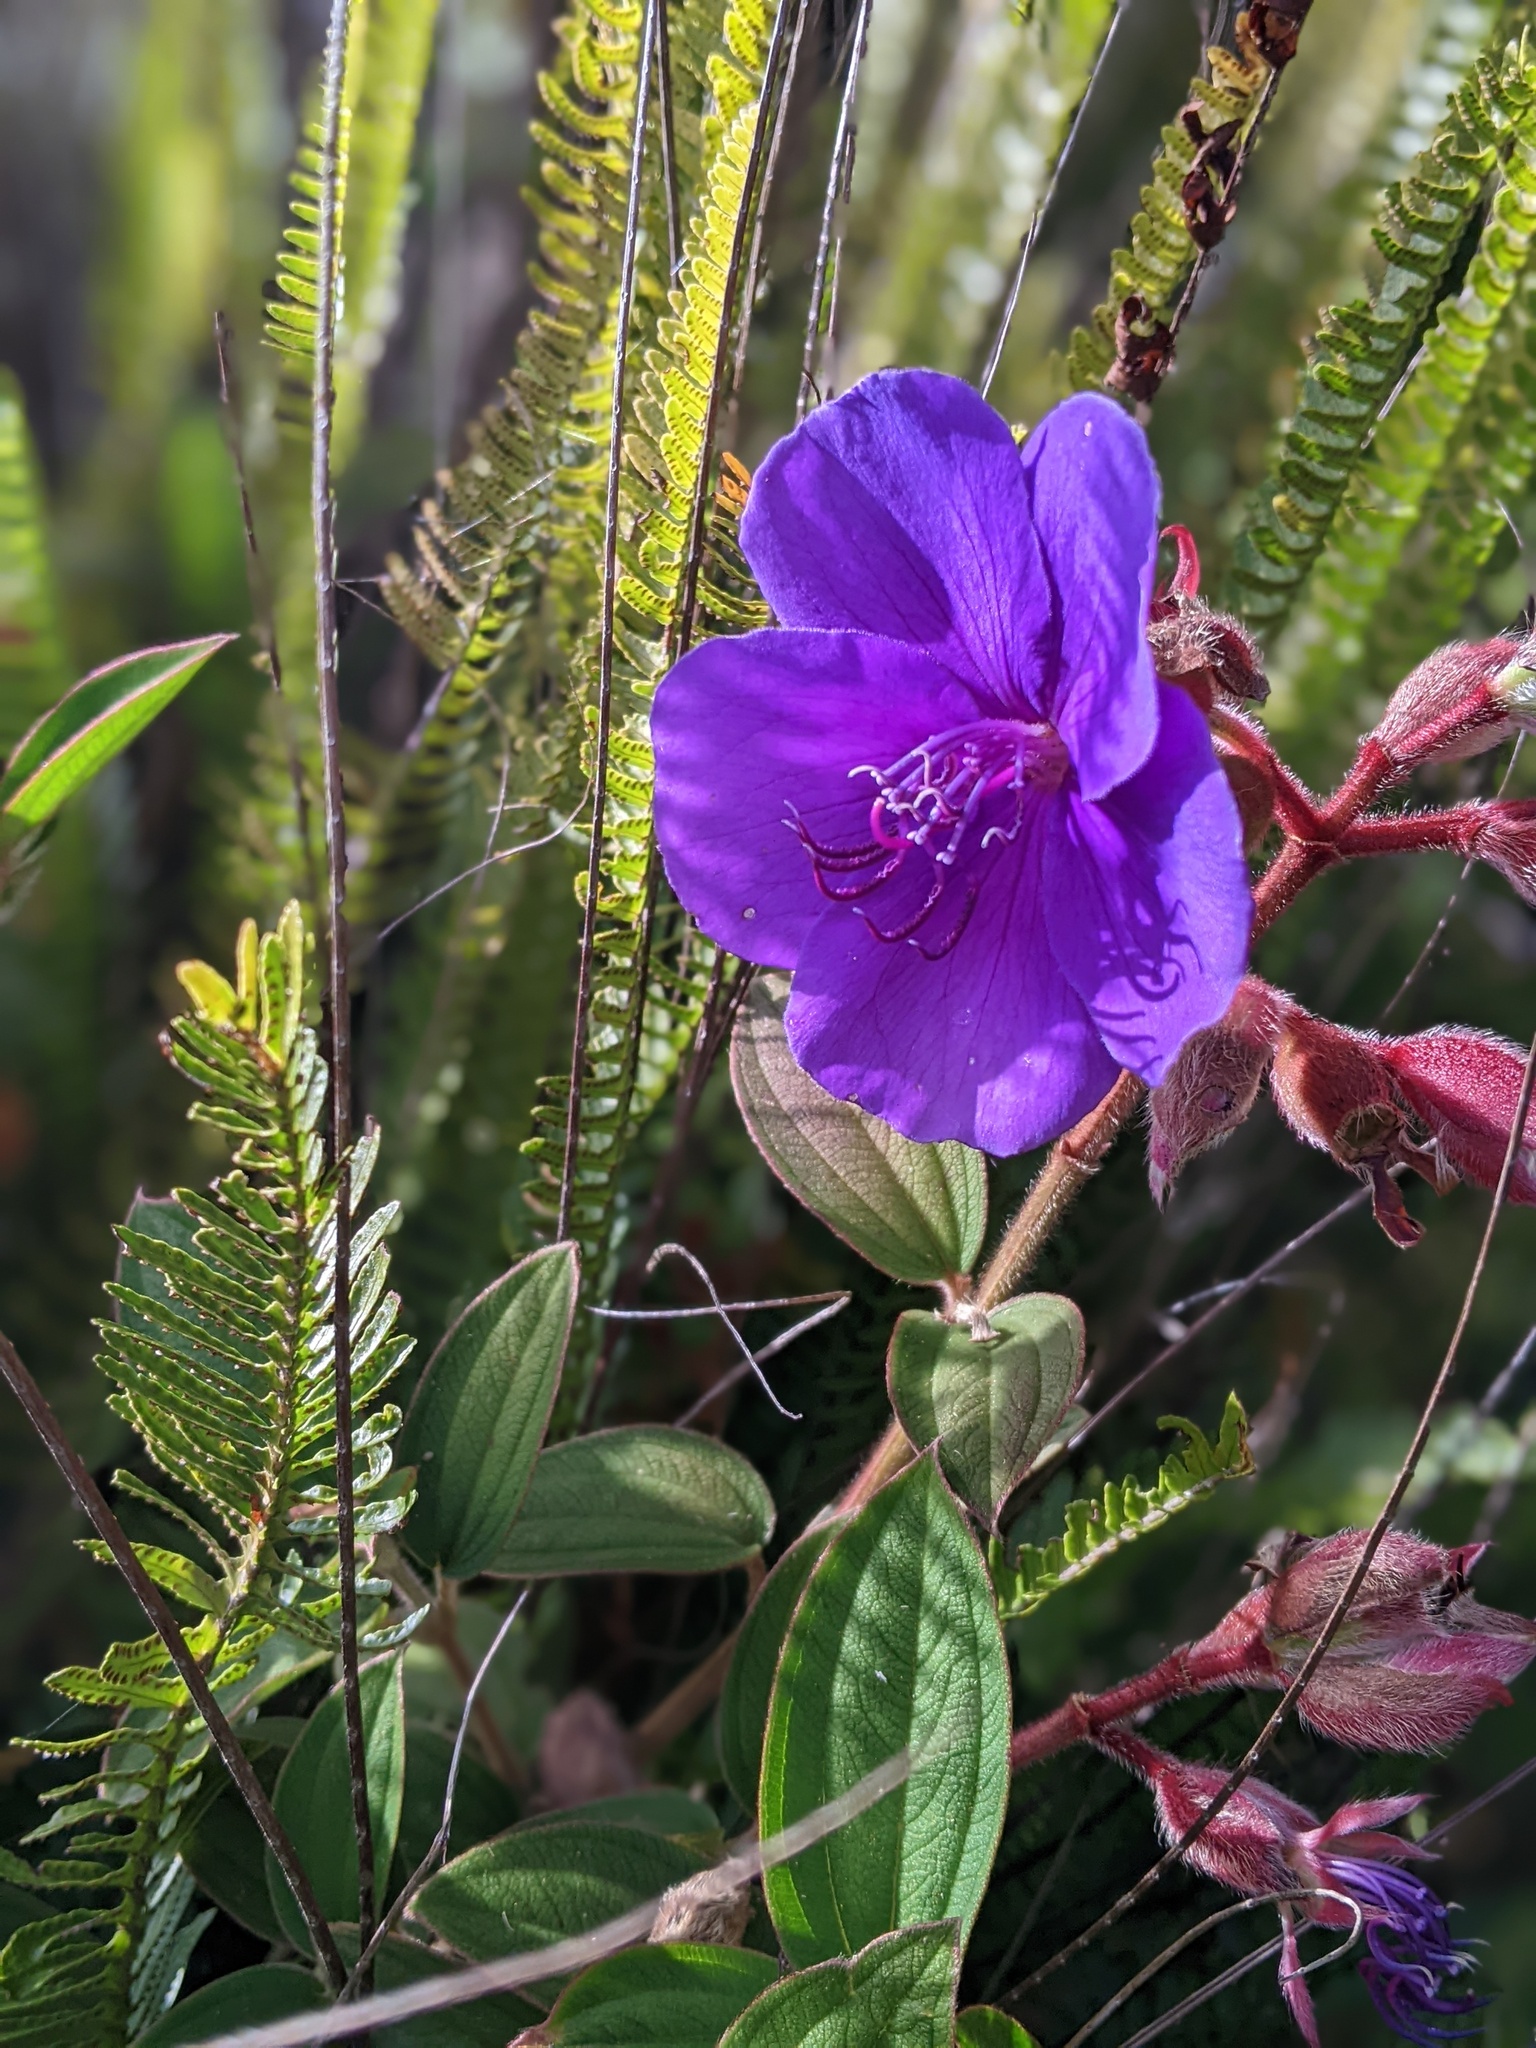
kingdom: Plantae
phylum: Tracheophyta
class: Magnoliopsida
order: Myrtales
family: Melastomataceae
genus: Pleroma
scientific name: Pleroma urvilleanum
